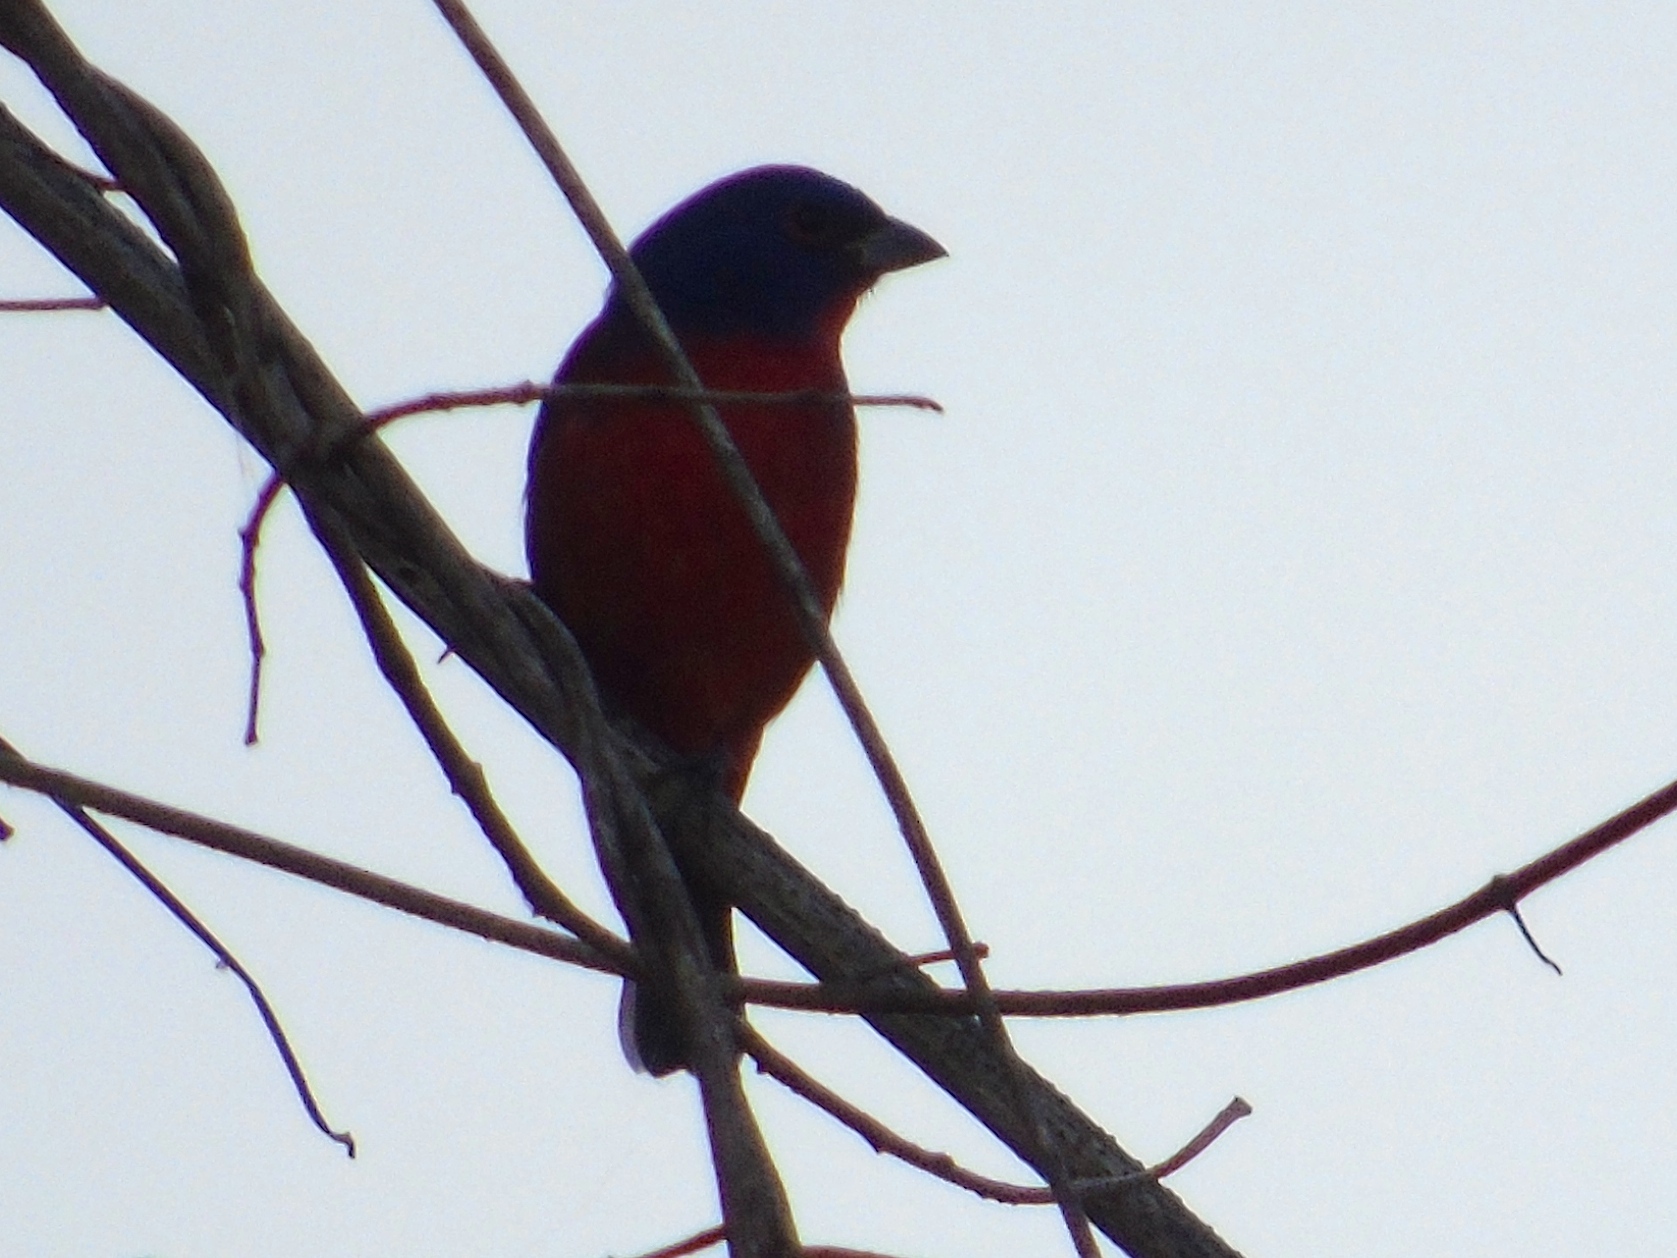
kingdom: Animalia
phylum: Chordata
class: Aves
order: Passeriformes
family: Cardinalidae
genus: Passerina
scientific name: Passerina ciris
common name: Painted bunting
